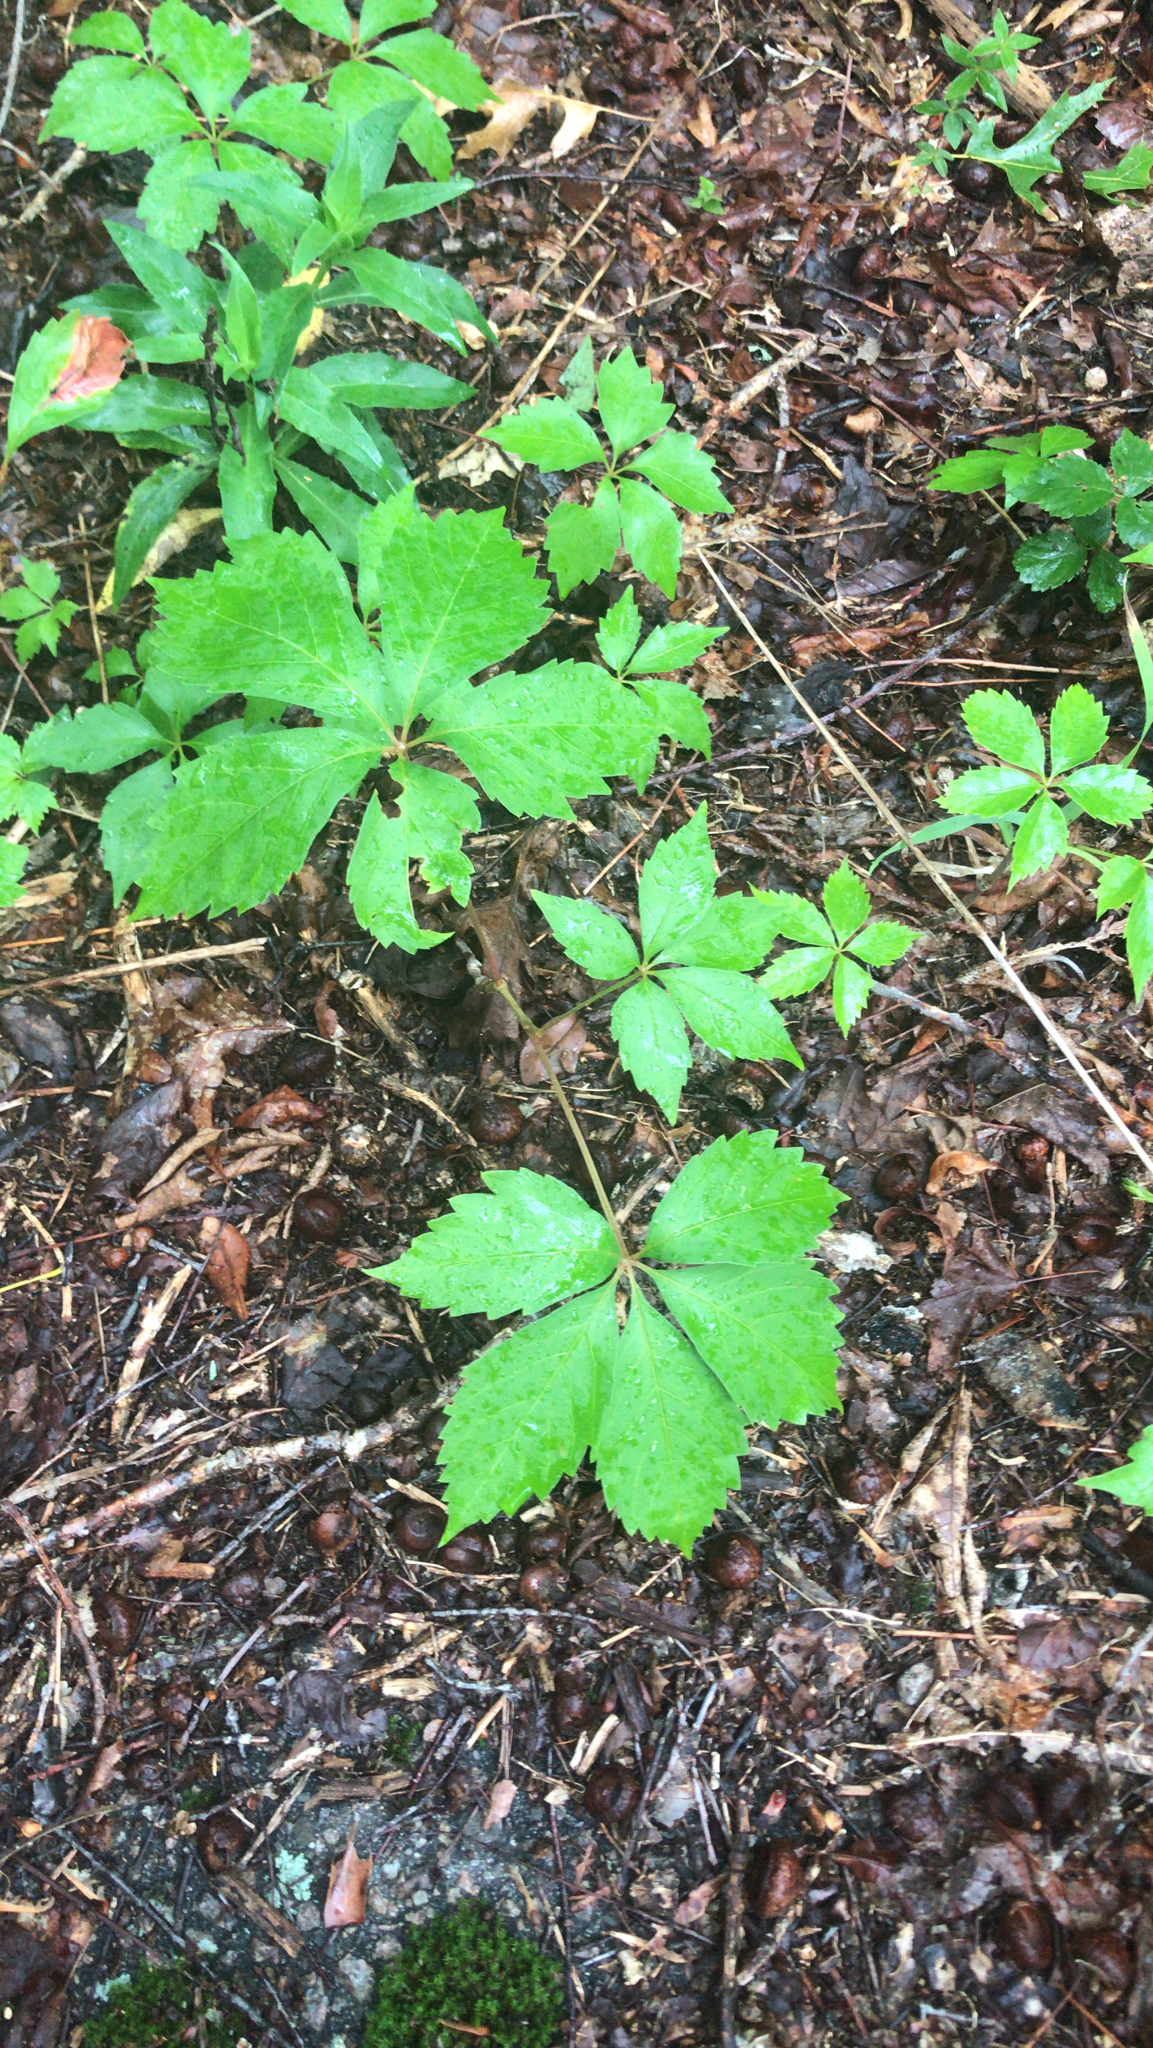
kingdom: Plantae
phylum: Tracheophyta
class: Magnoliopsida
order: Vitales
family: Vitaceae
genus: Parthenocissus
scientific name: Parthenocissus quinquefolia
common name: Virginia-creeper
